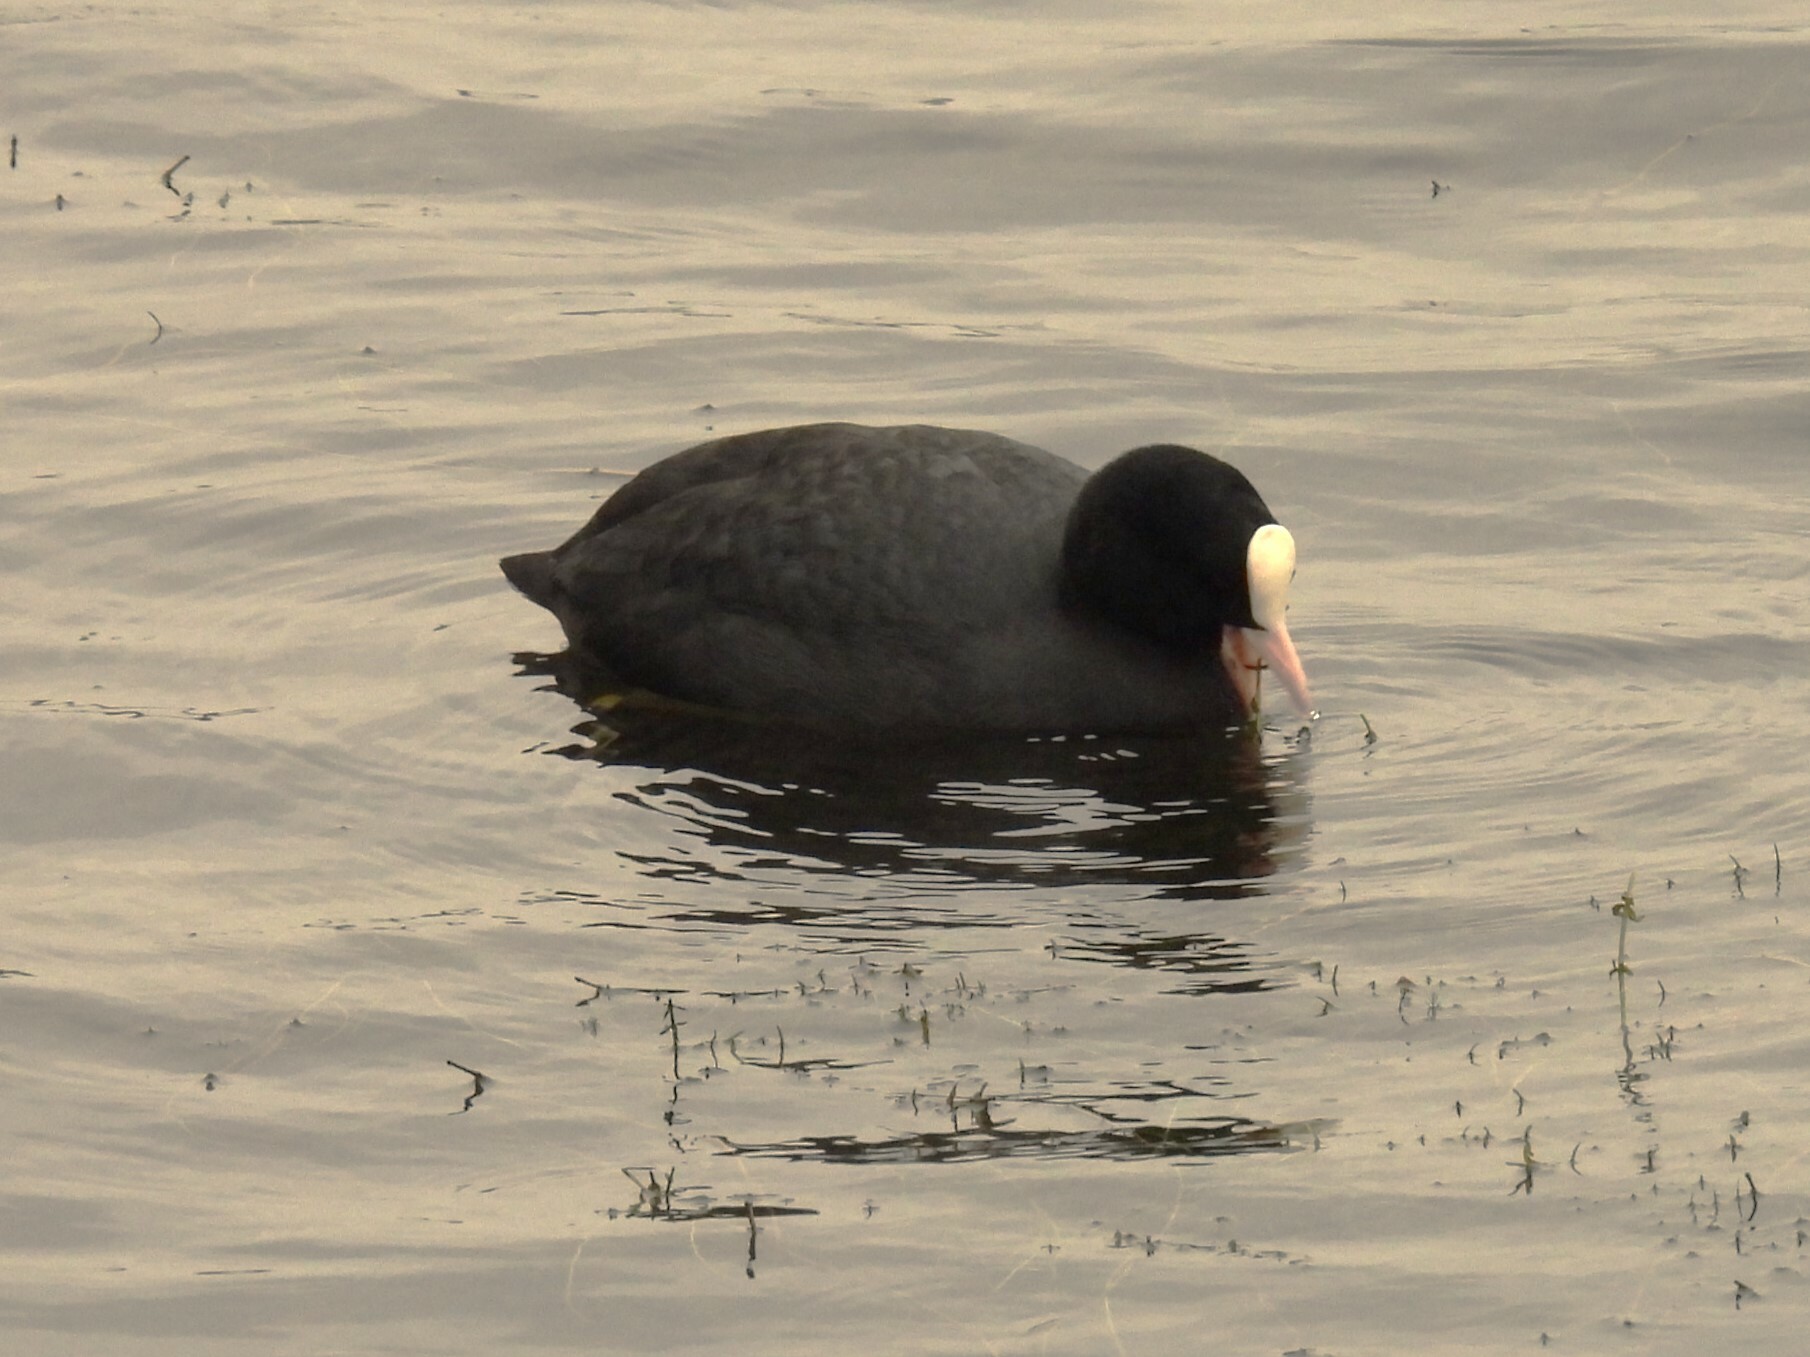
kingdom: Animalia
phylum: Chordata
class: Aves
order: Gruiformes
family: Rallidae
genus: Fulica
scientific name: Fulica atra
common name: Eurasian coot
